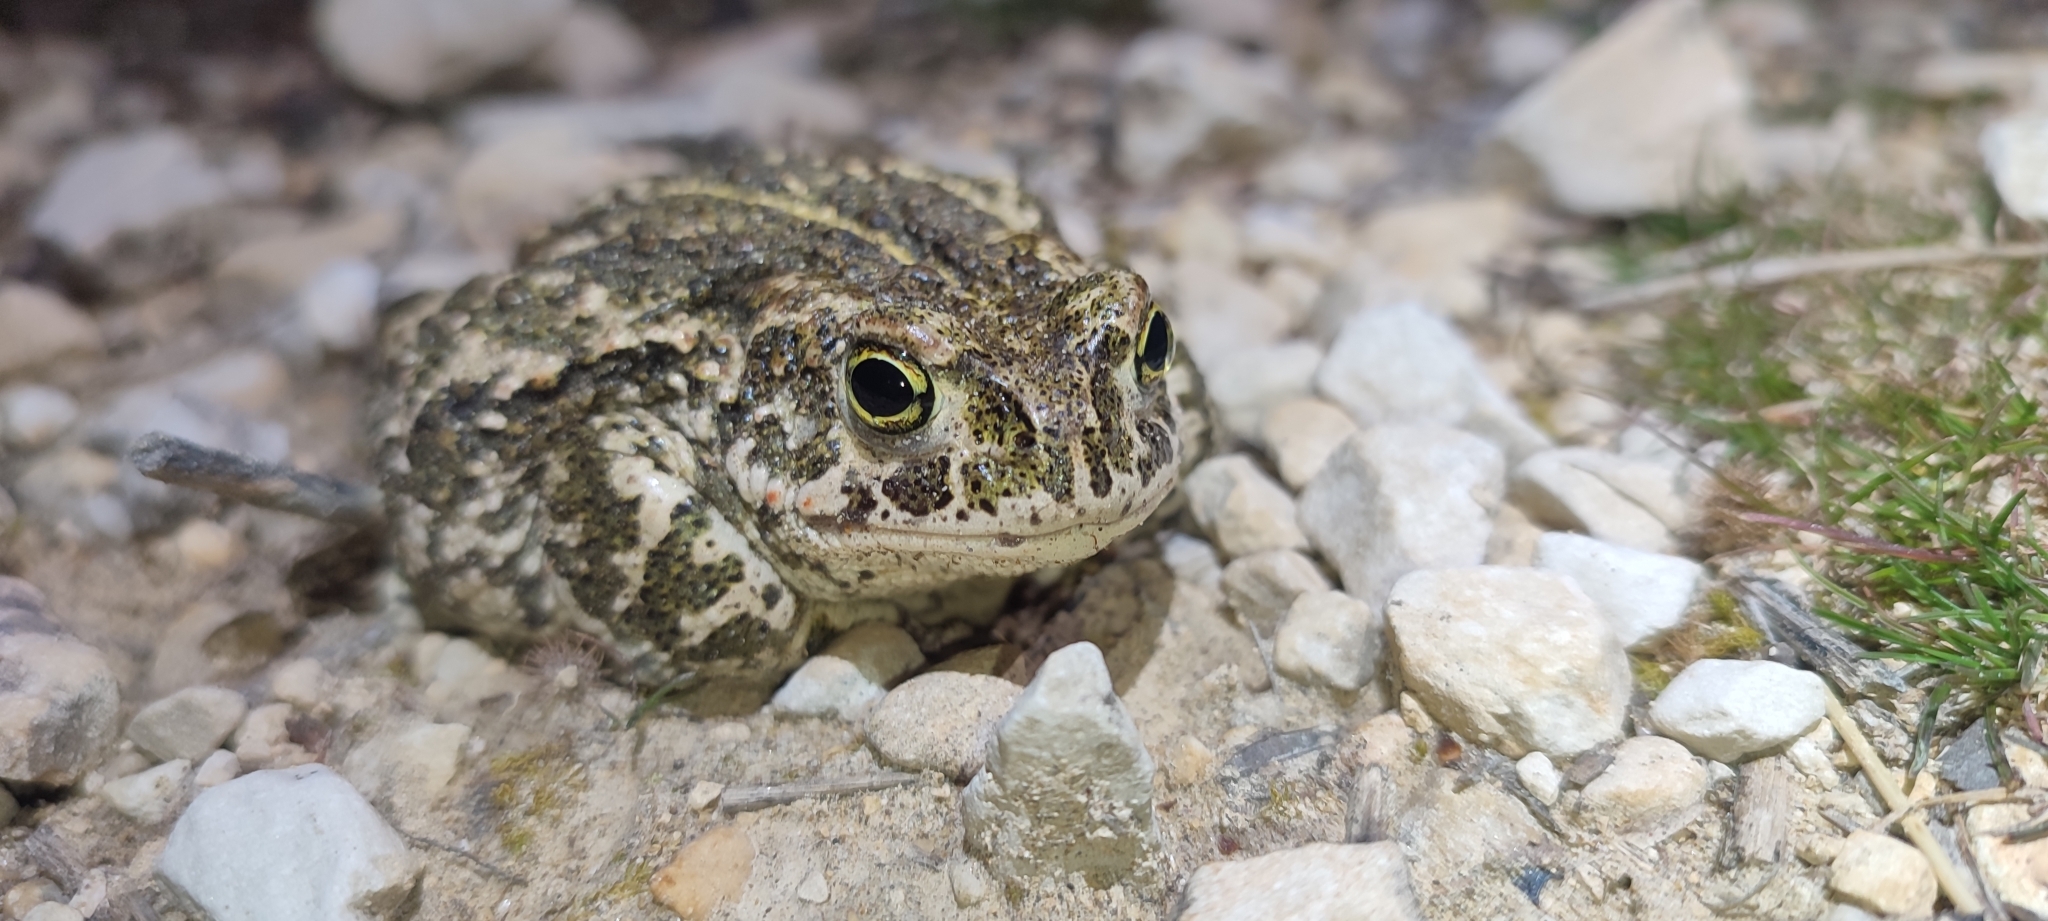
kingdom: Animalia
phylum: Chordata
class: Amphibia
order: Anura
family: Bufonidae
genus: Epidalea
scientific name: Epidalea calamita
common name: Natterjack toad
